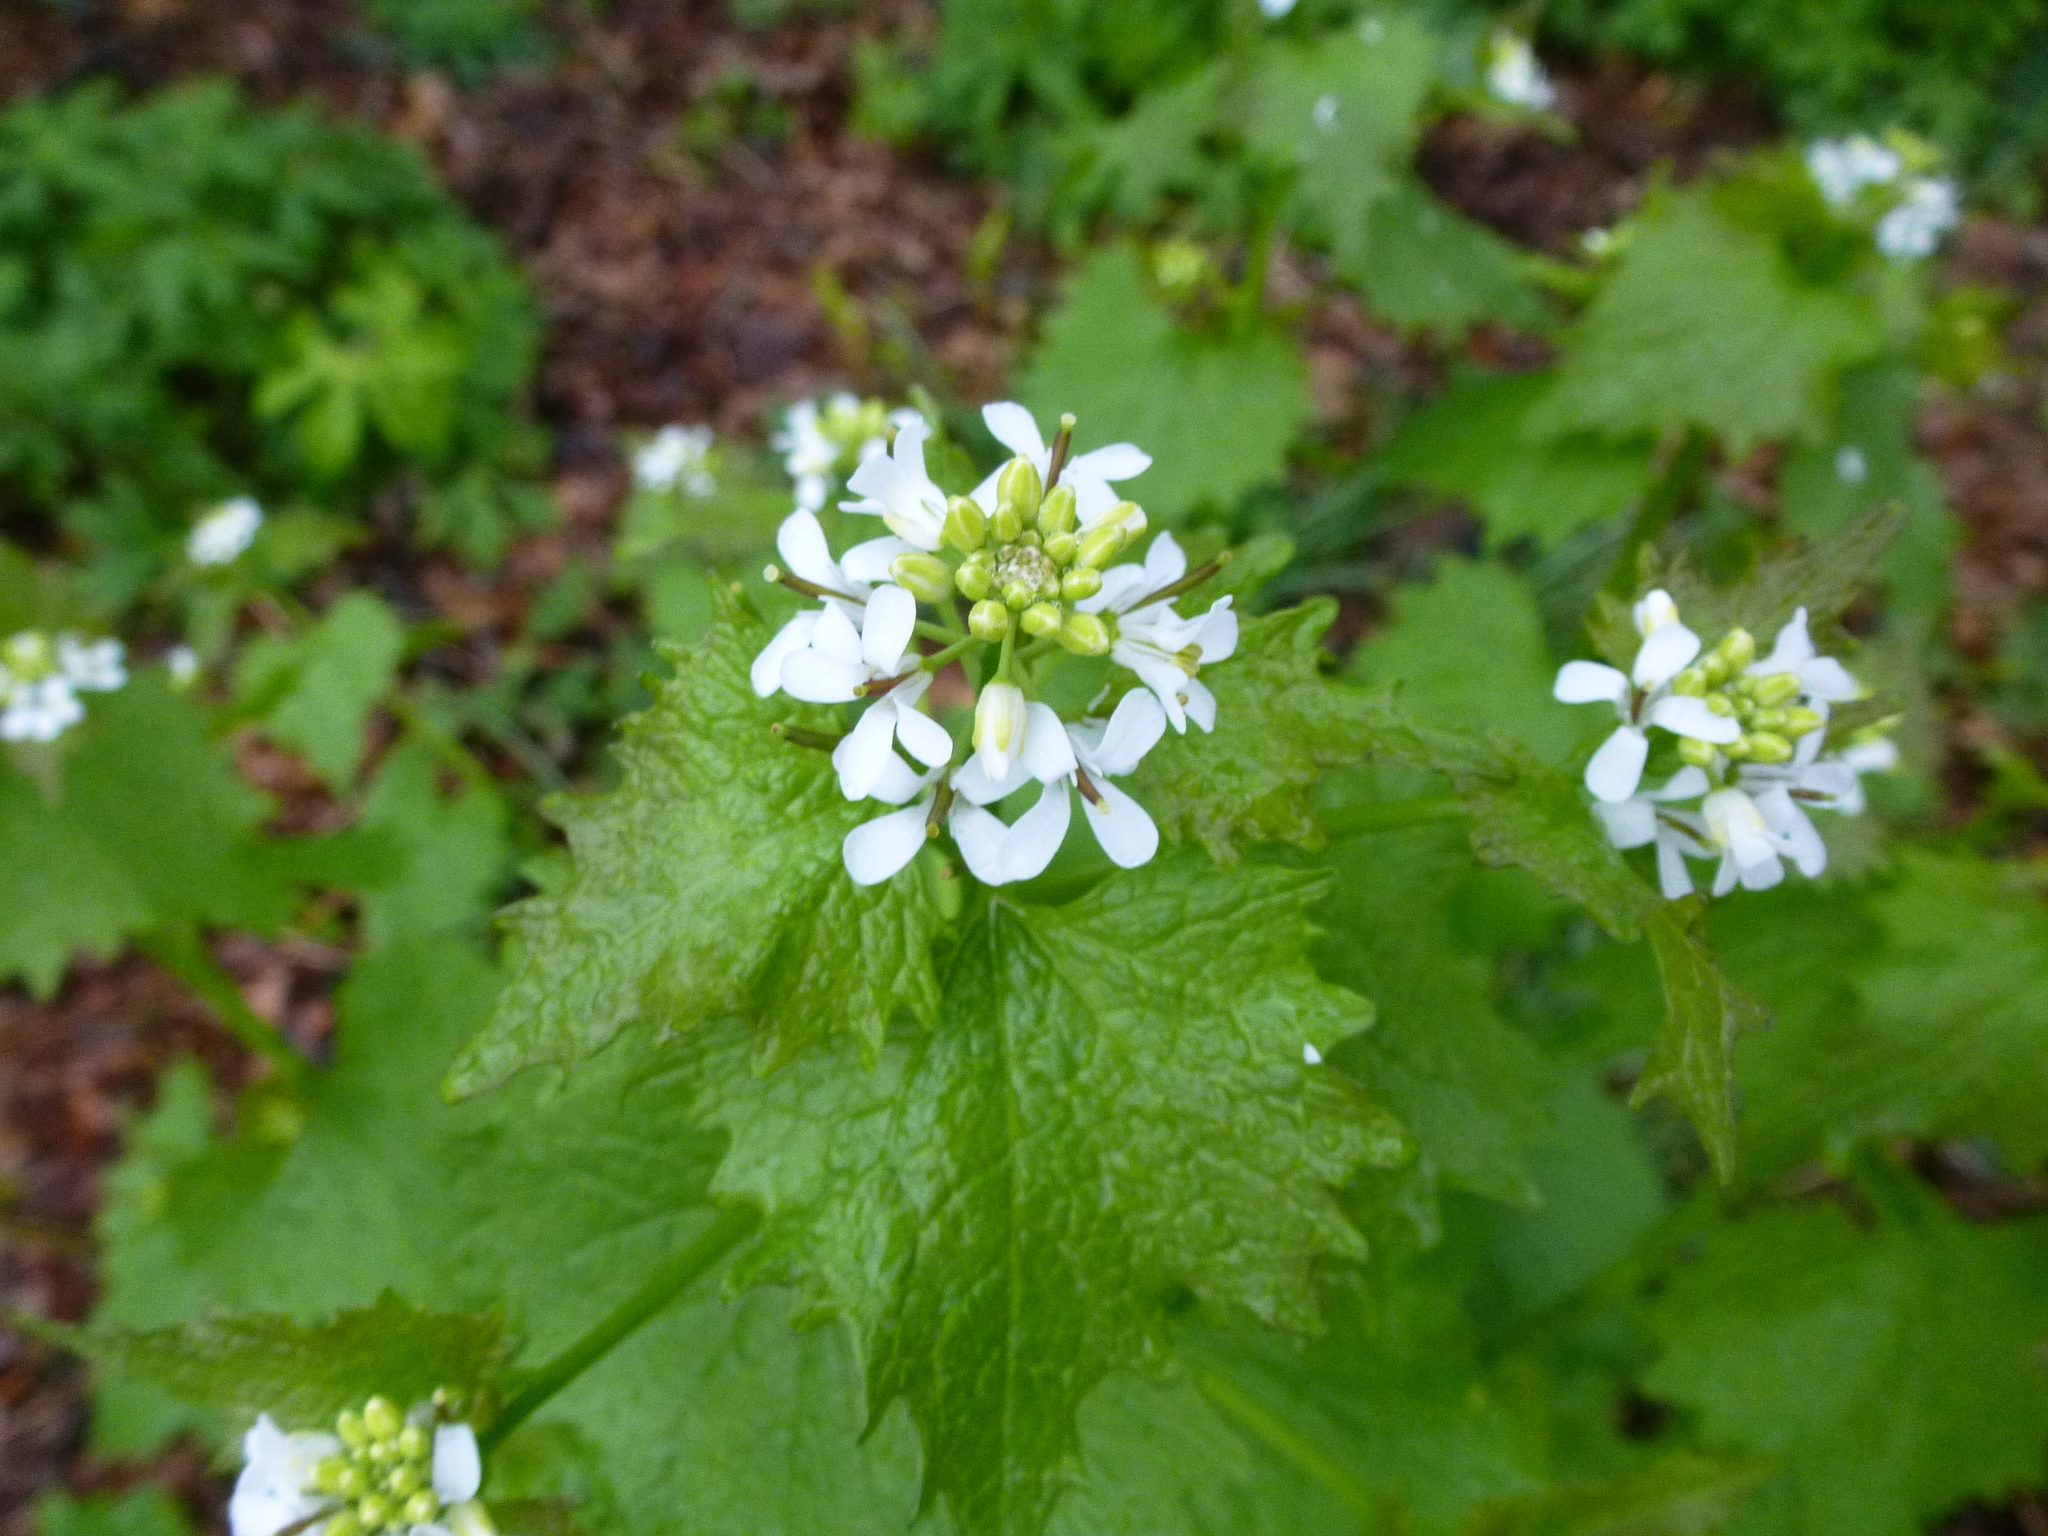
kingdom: Plantae
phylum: Tracheophyta
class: Magnoliopsida
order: Brassicales
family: Brassicaceae
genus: Alliaria
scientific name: Alliaria petiolata
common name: Garlic mustard
